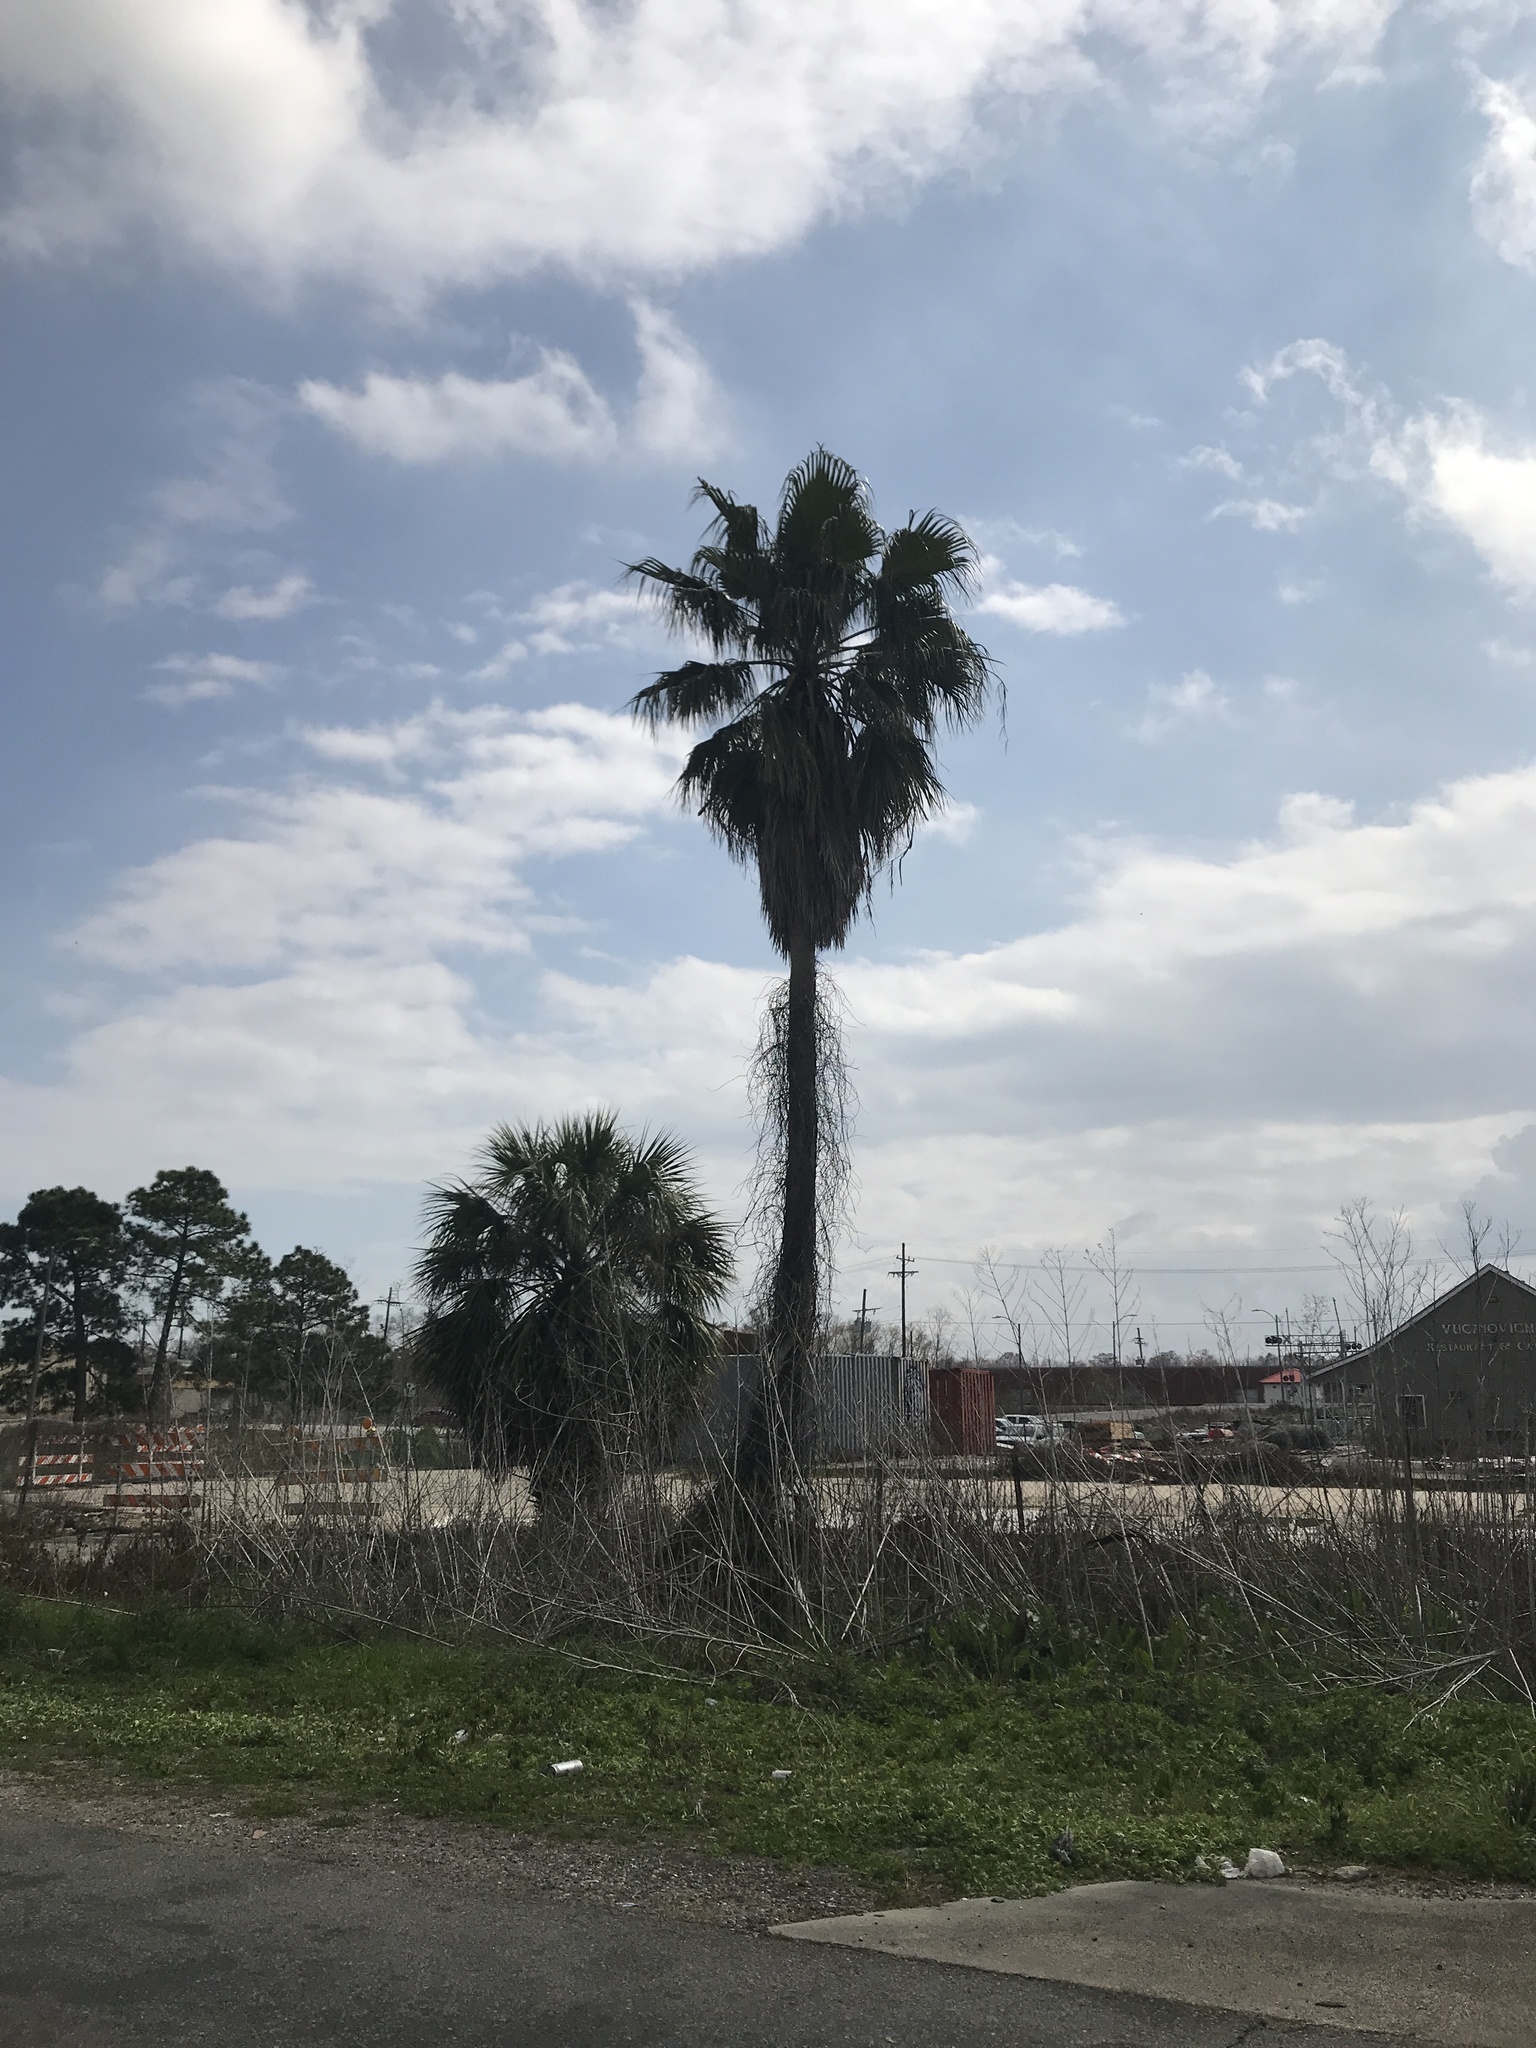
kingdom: Plantae
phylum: Tracheophyta
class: Liliopsida
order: Arecales
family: Arecaceae
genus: Washingtonia
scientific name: Washingtonia robusta
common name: Mexican fan palm
